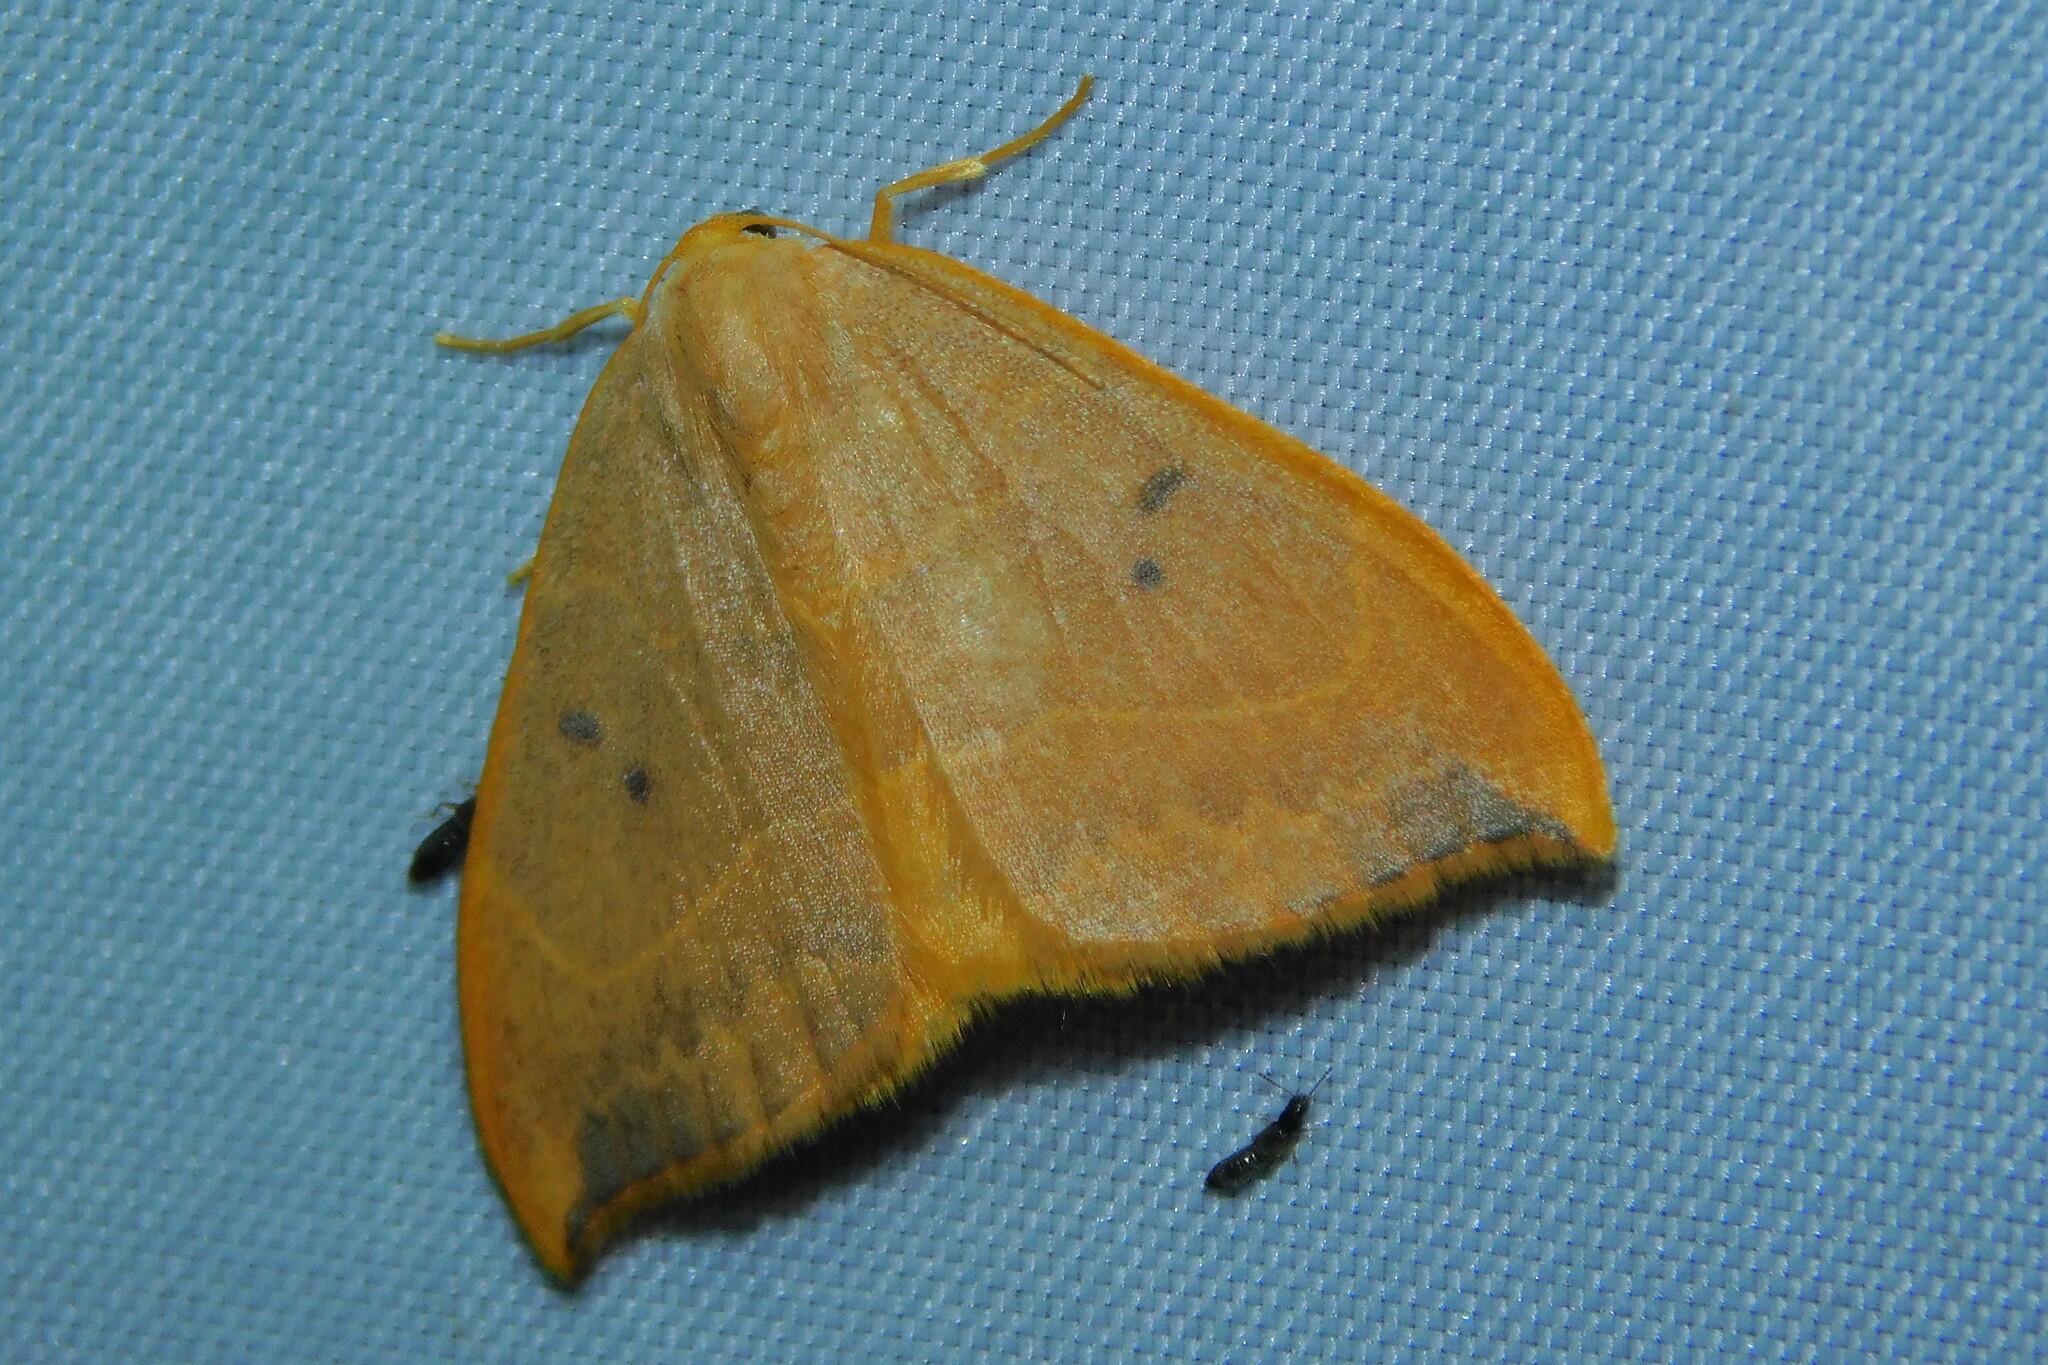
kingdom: Animalia
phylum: Arthropoda
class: Insecta
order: Lepidoptera
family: Drepanidae
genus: Watsonalla
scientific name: Watsonalla binaria
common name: Oak hook-tip
